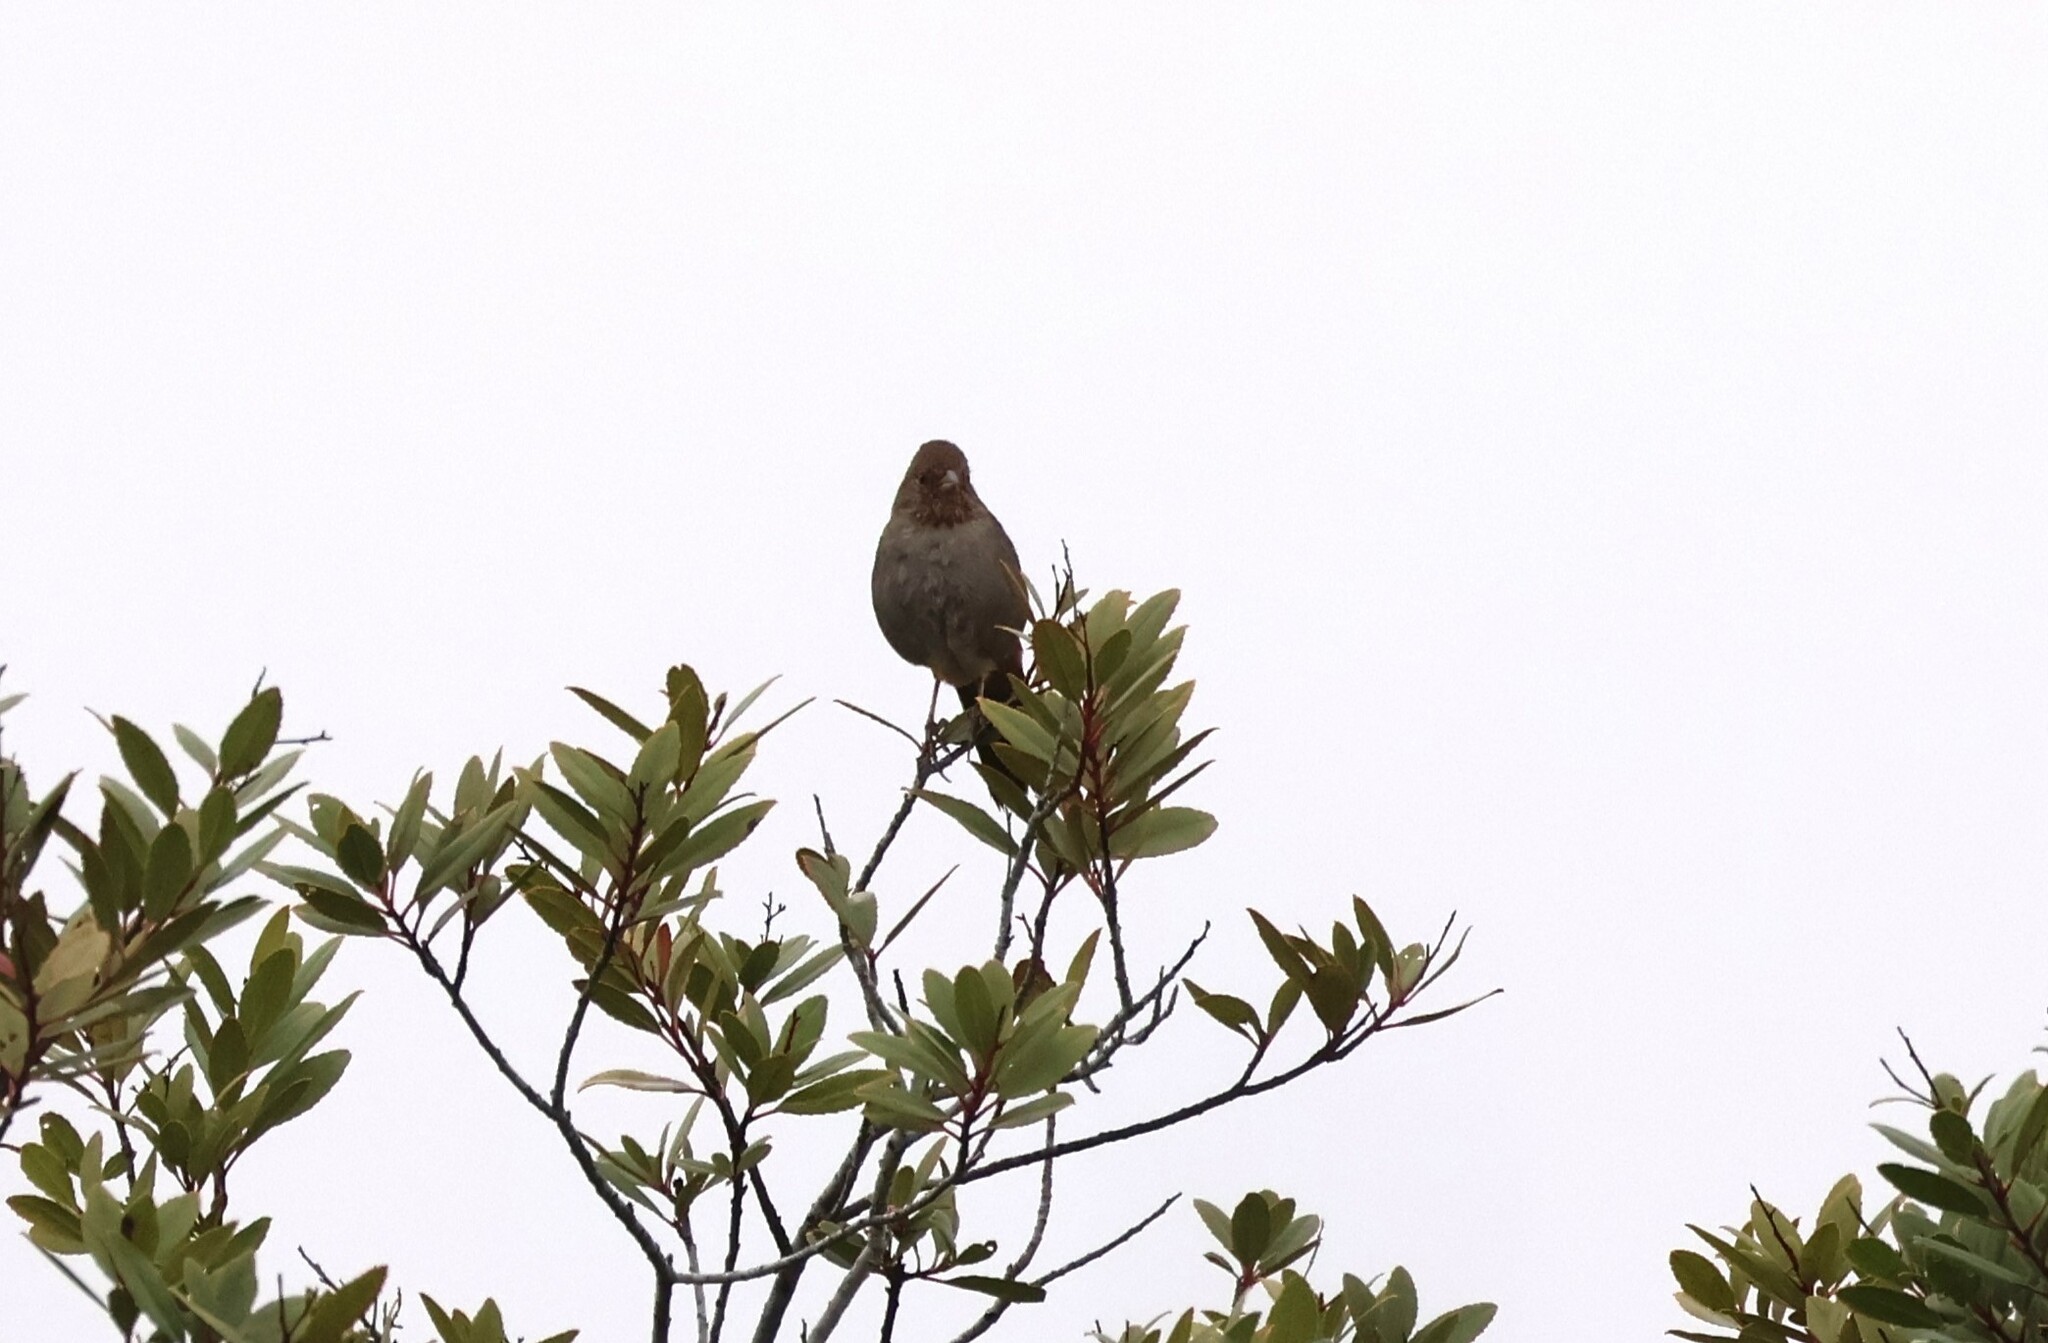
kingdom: Animalia
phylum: Chordata
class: Aves
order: Passeriformes
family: Passerellidae
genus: Melozone
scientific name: Melozone crissalis
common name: California towhee
